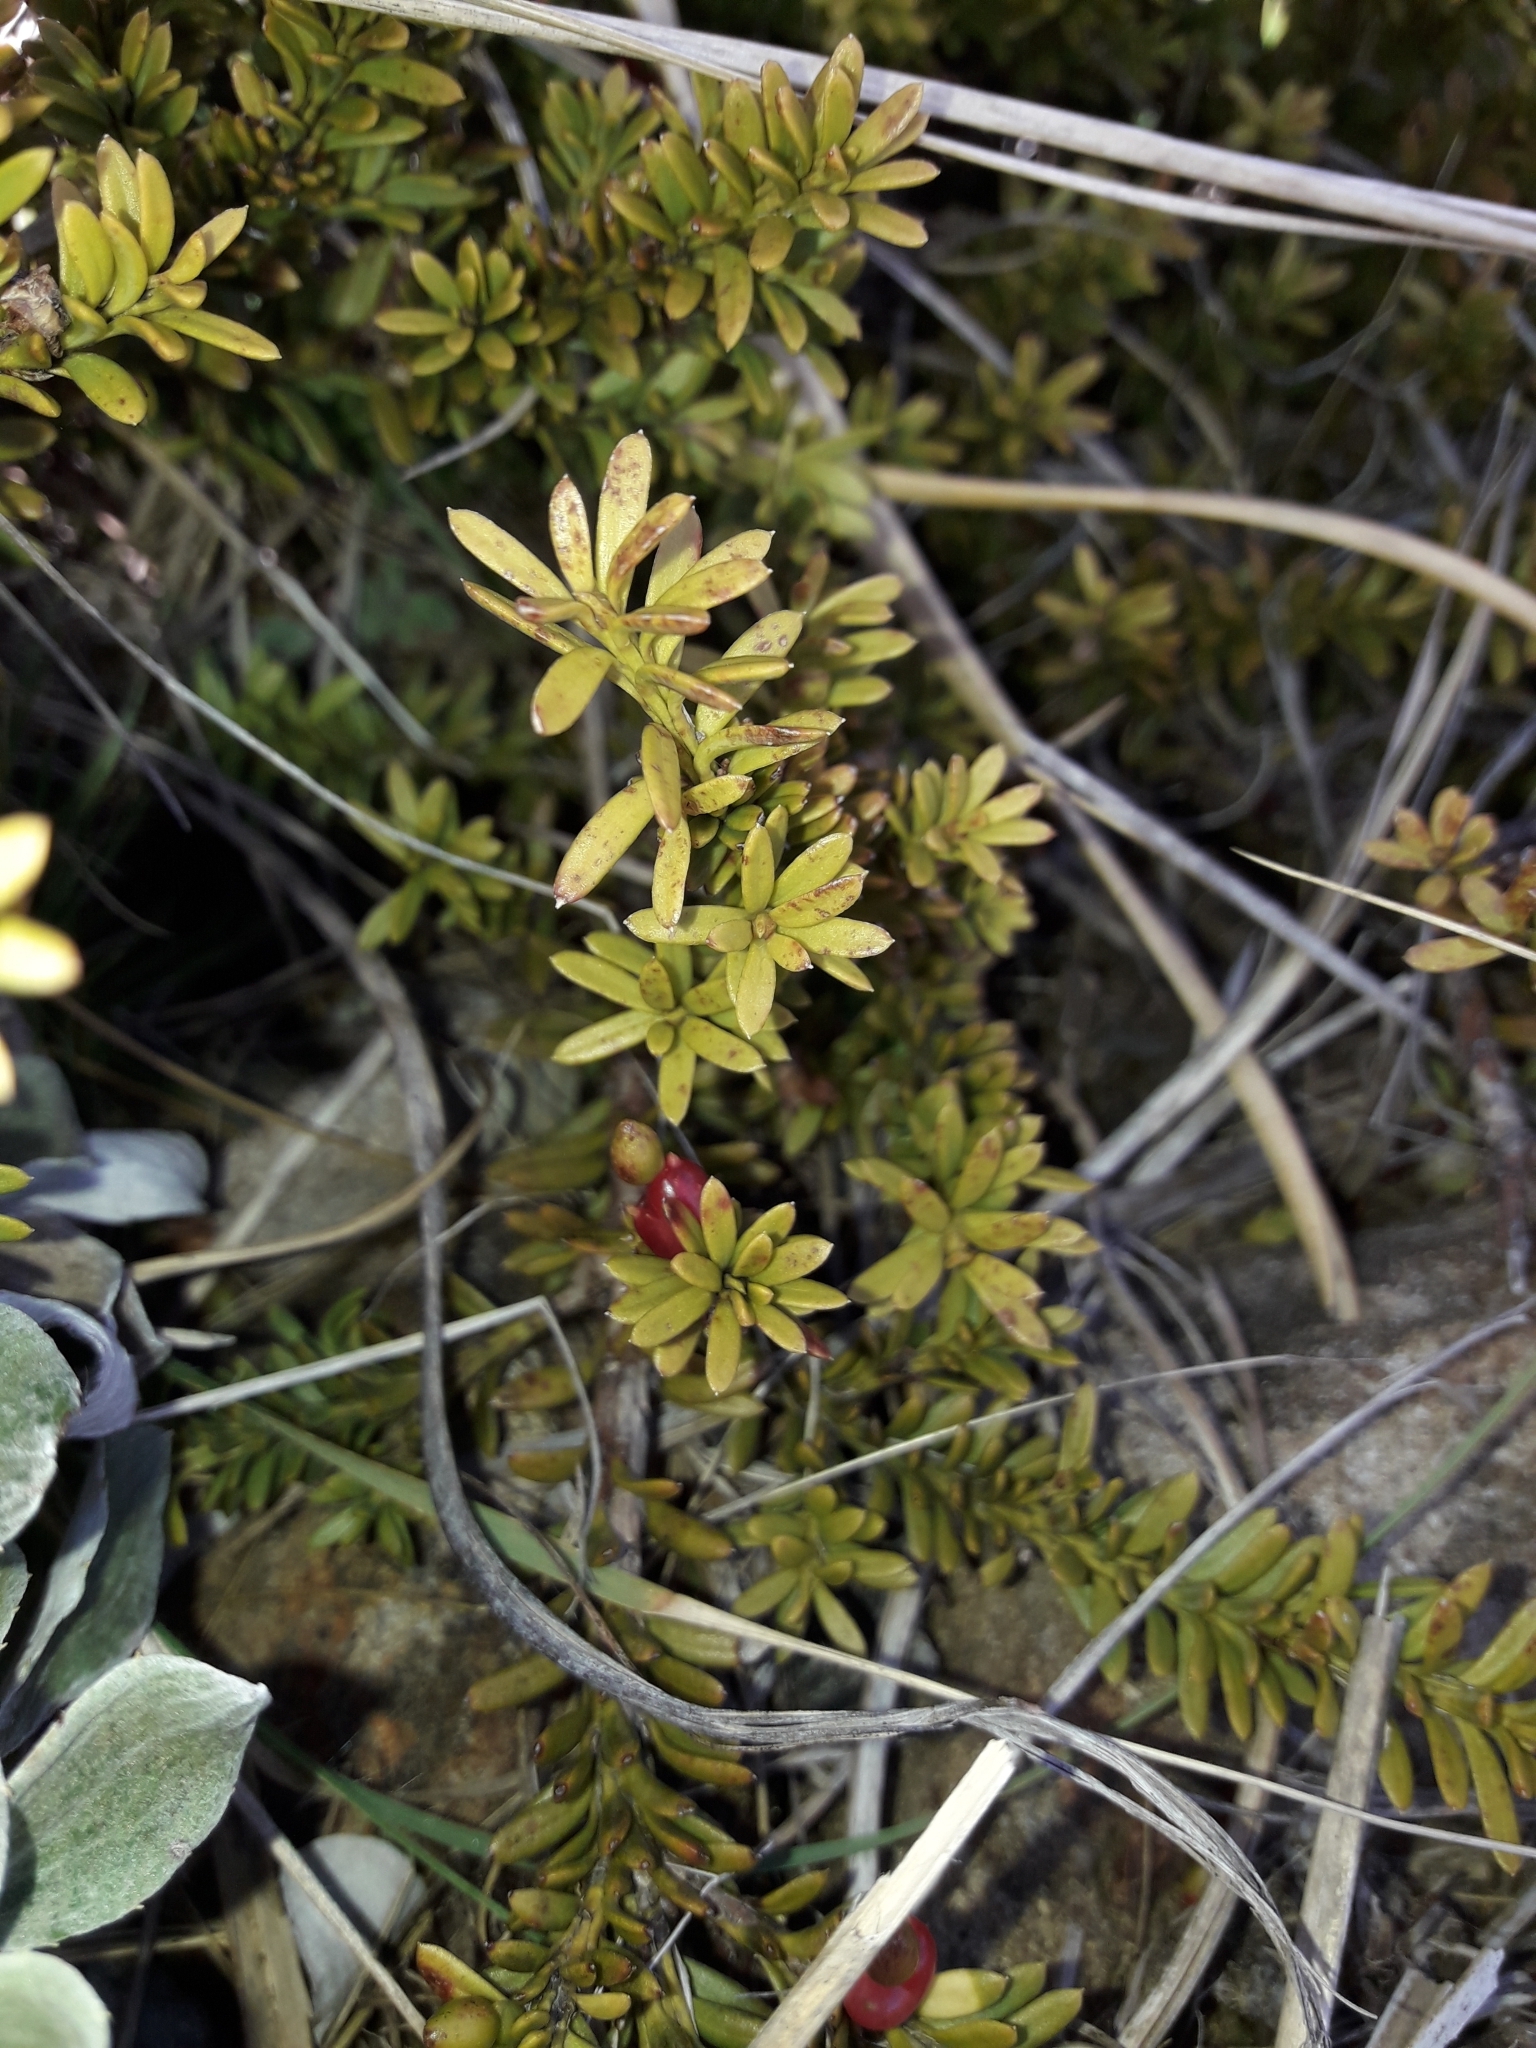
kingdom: Plantae
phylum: Tracheophyta
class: Pinopsida
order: Pinales
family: Podocarpaceae
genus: Podocarpus
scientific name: Podocarpus nivalis
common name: Alpine totara
